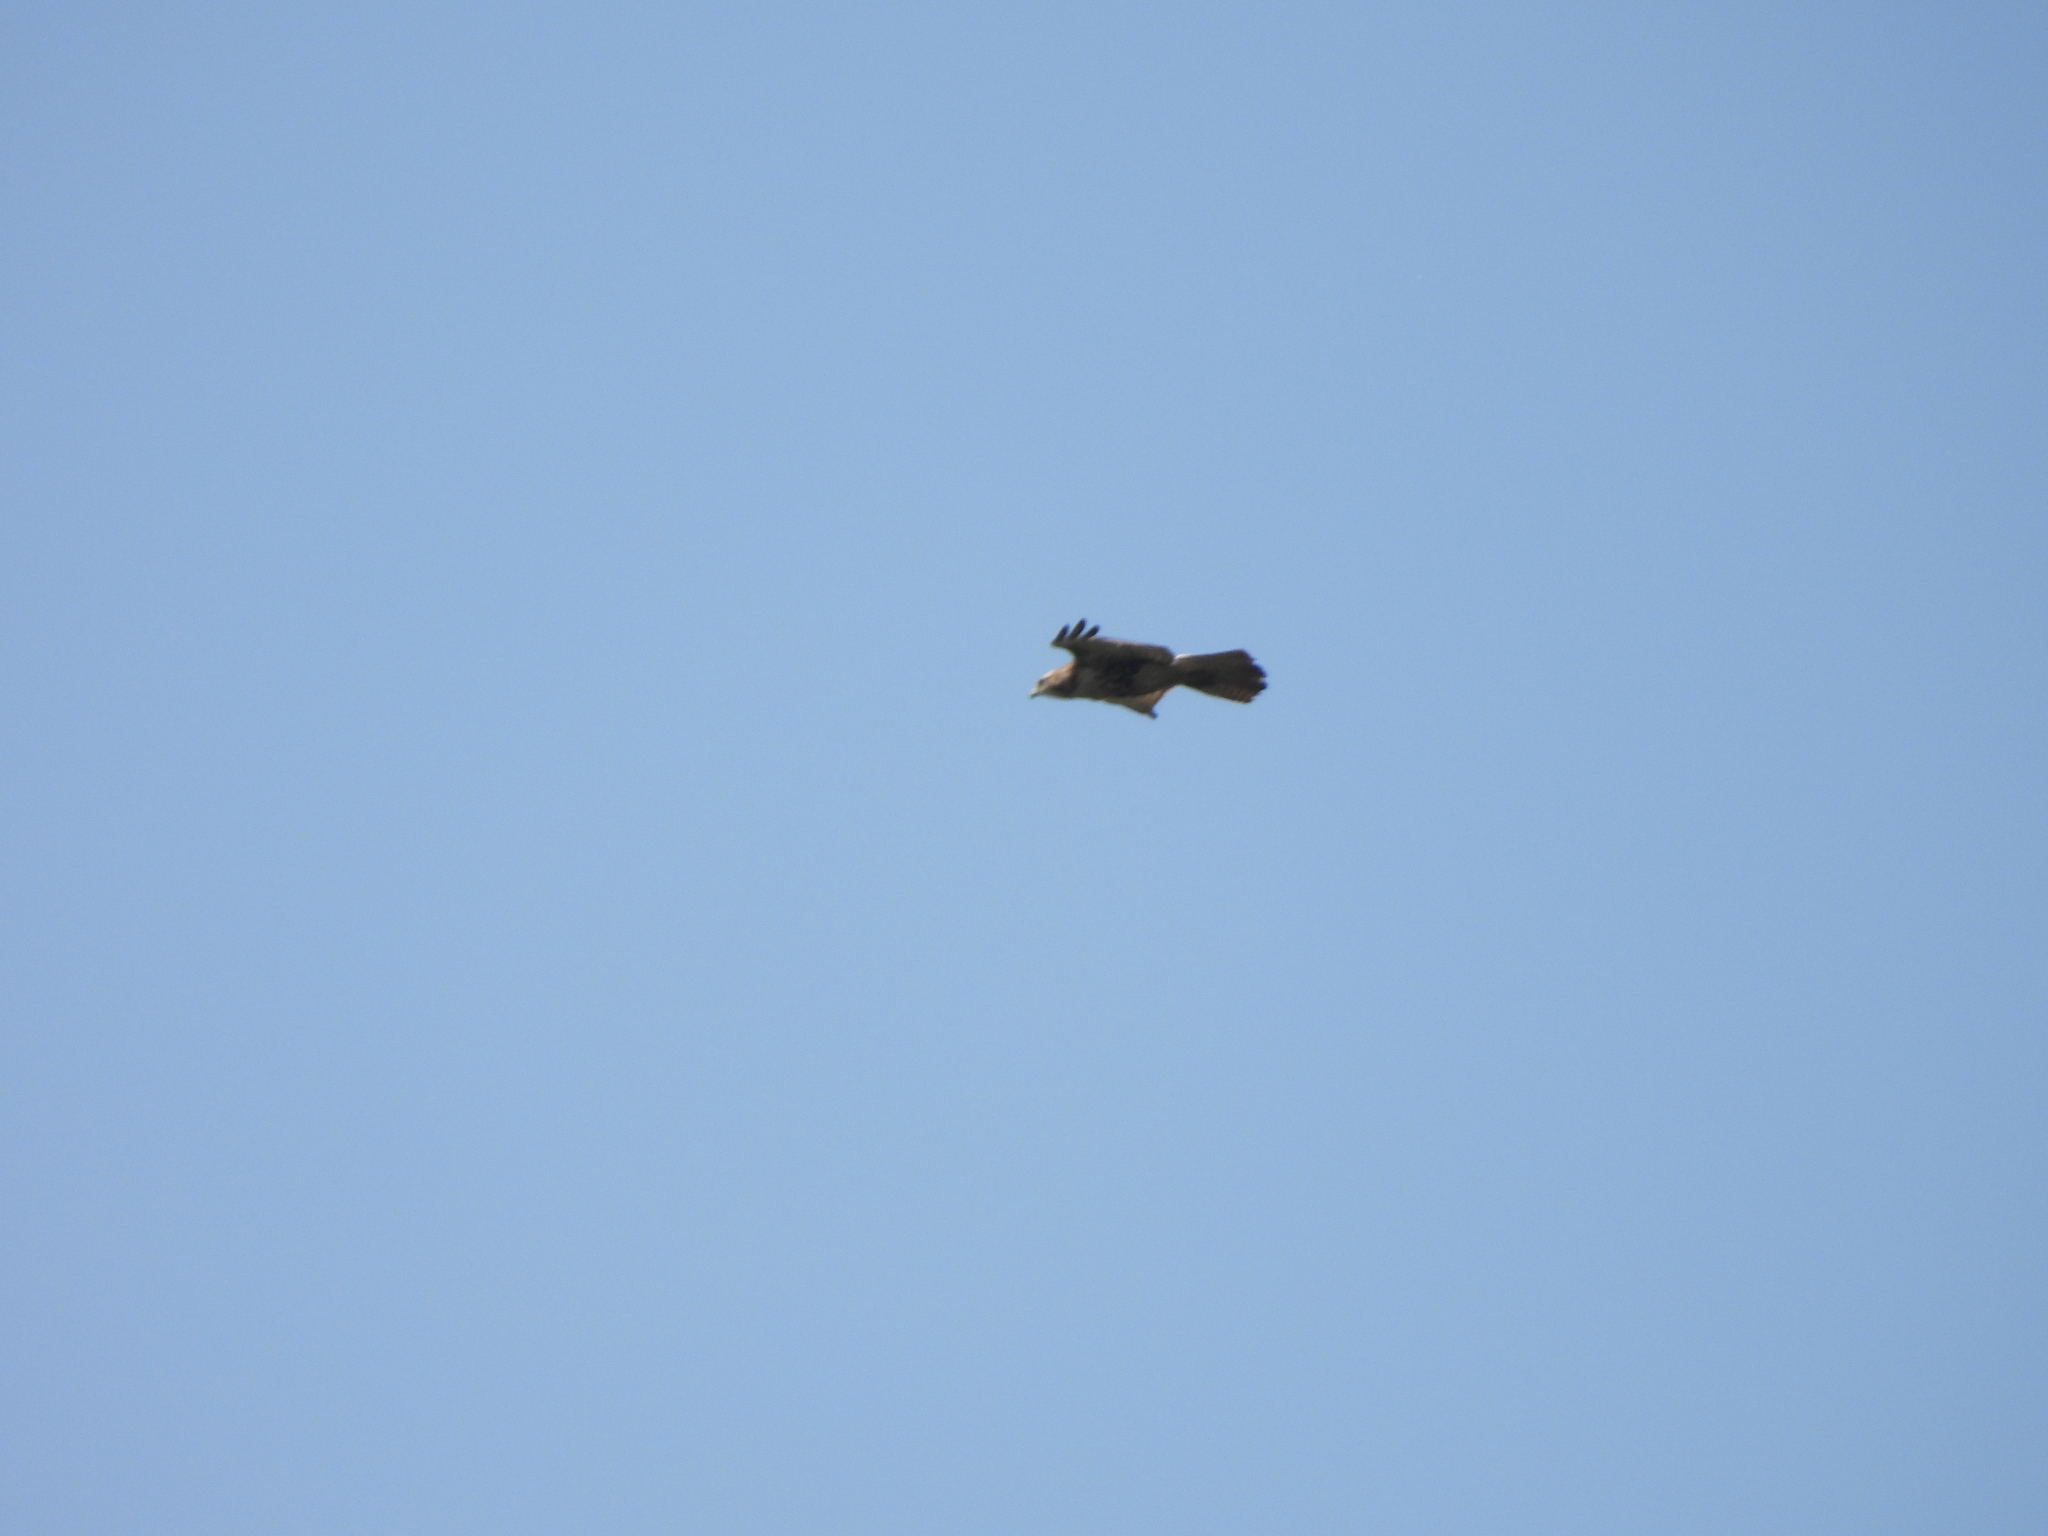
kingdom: Animalia
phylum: Chordata
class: Aves
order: Accipitriformes
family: Accipitridae
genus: Buteo
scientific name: Buteo jamaicensis
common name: Red-tailed hawk
